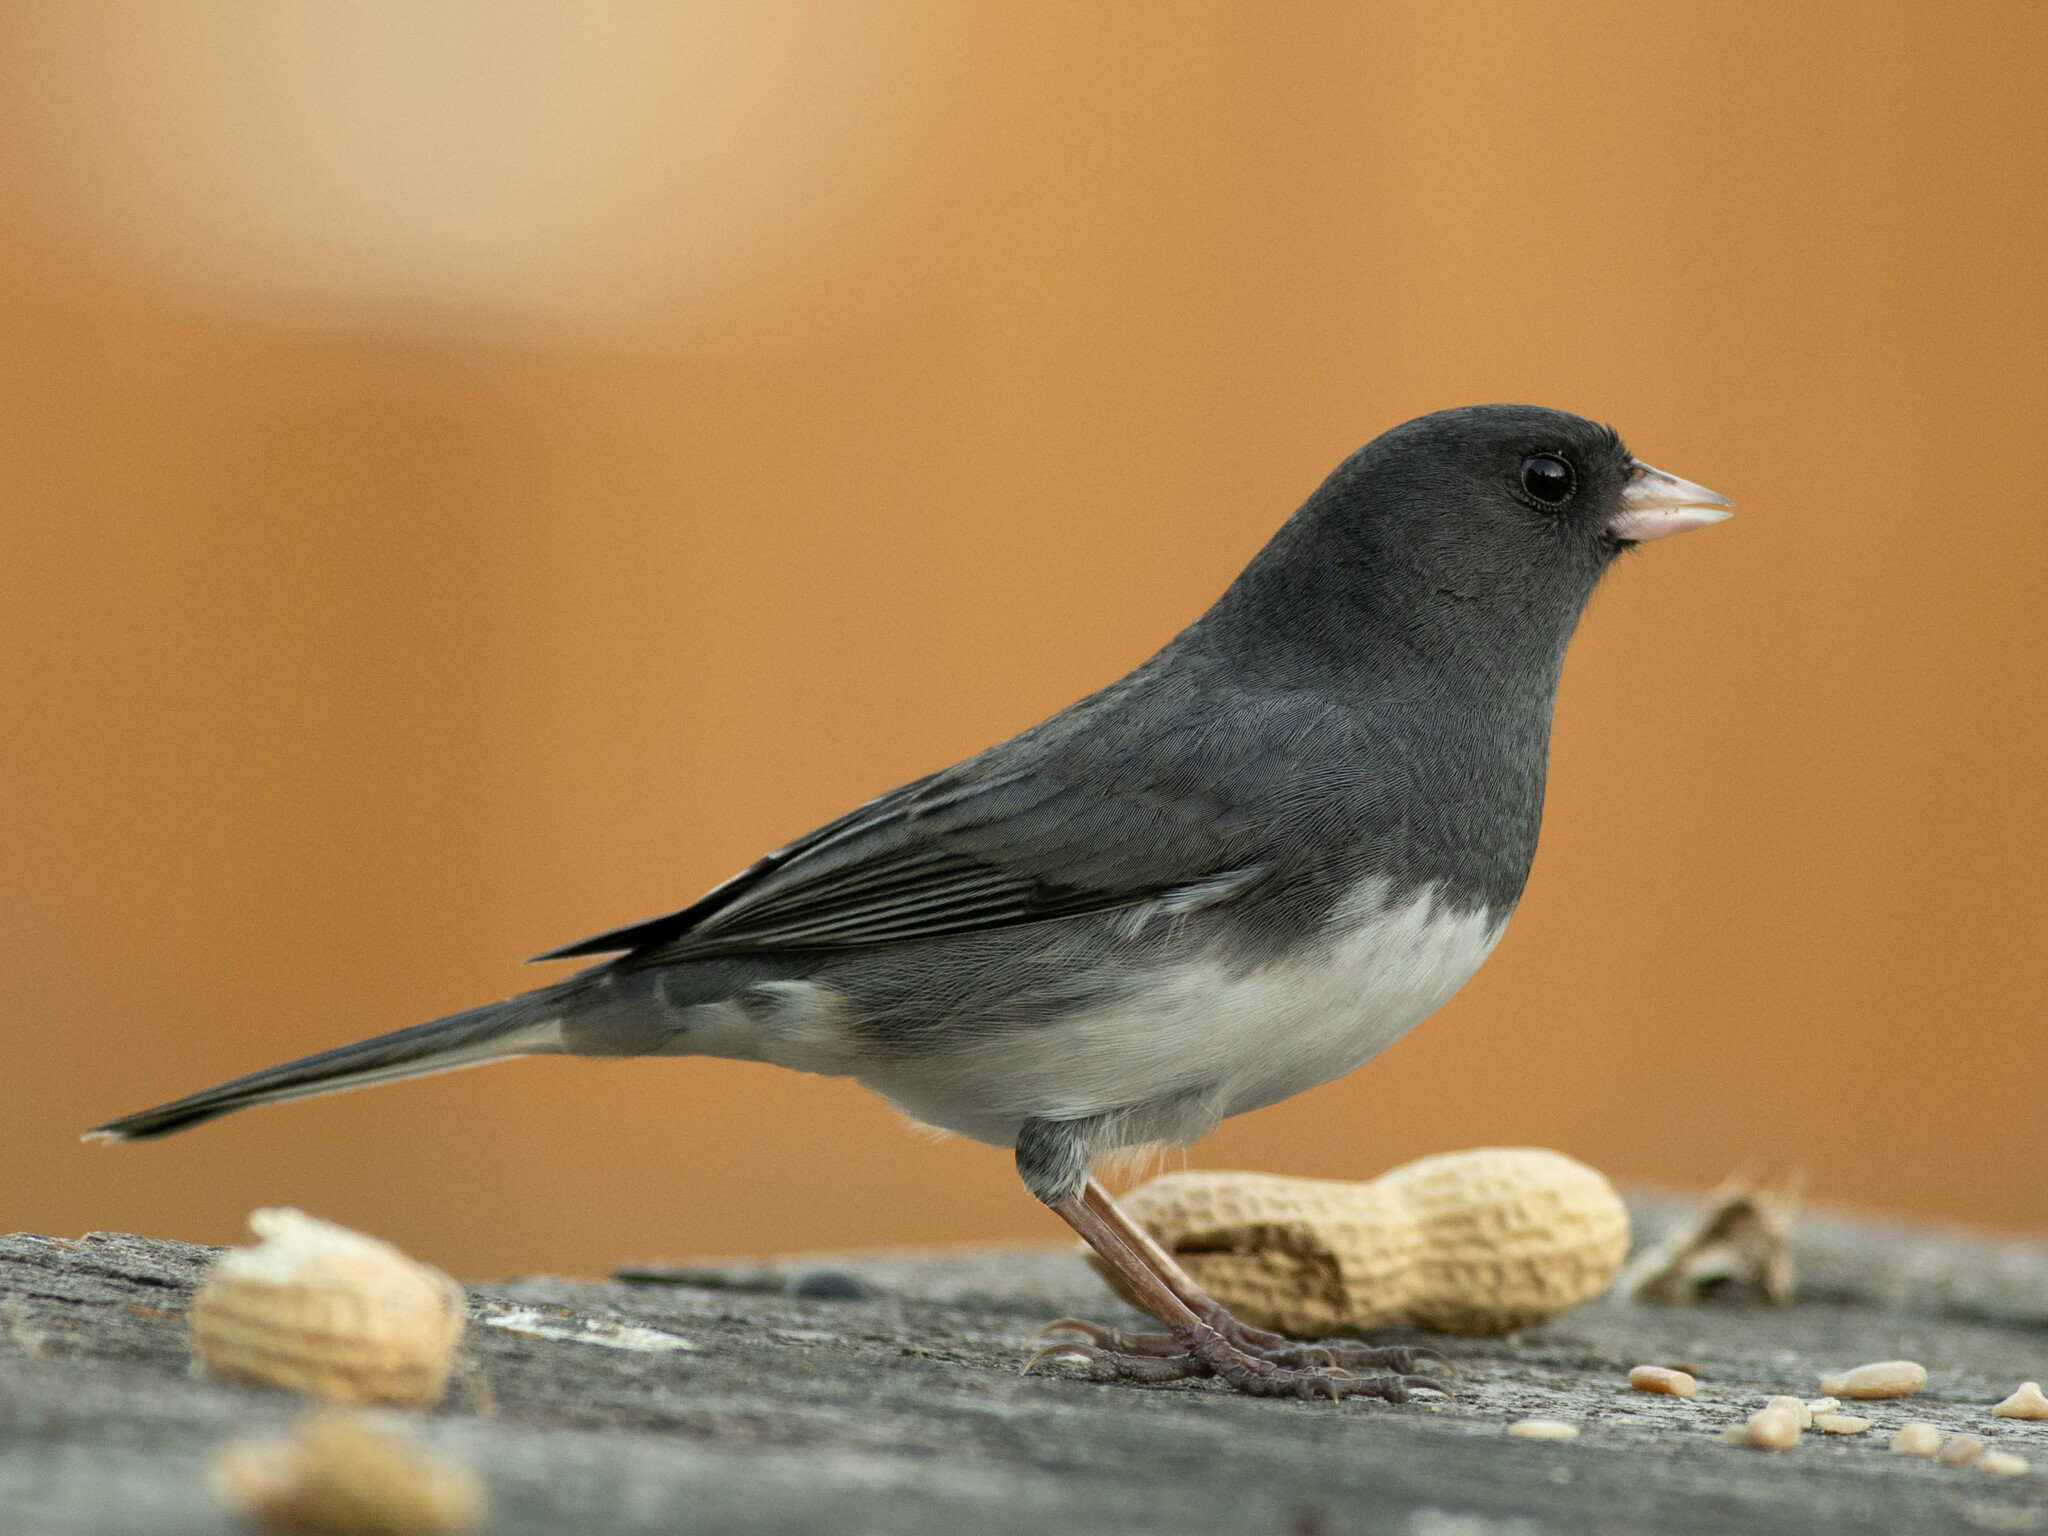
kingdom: Animalia
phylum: Chordata
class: Aves
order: Passeriformes
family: Passerellidae
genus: Junco
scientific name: Junco hyemalis
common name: Dark-eyed junco
